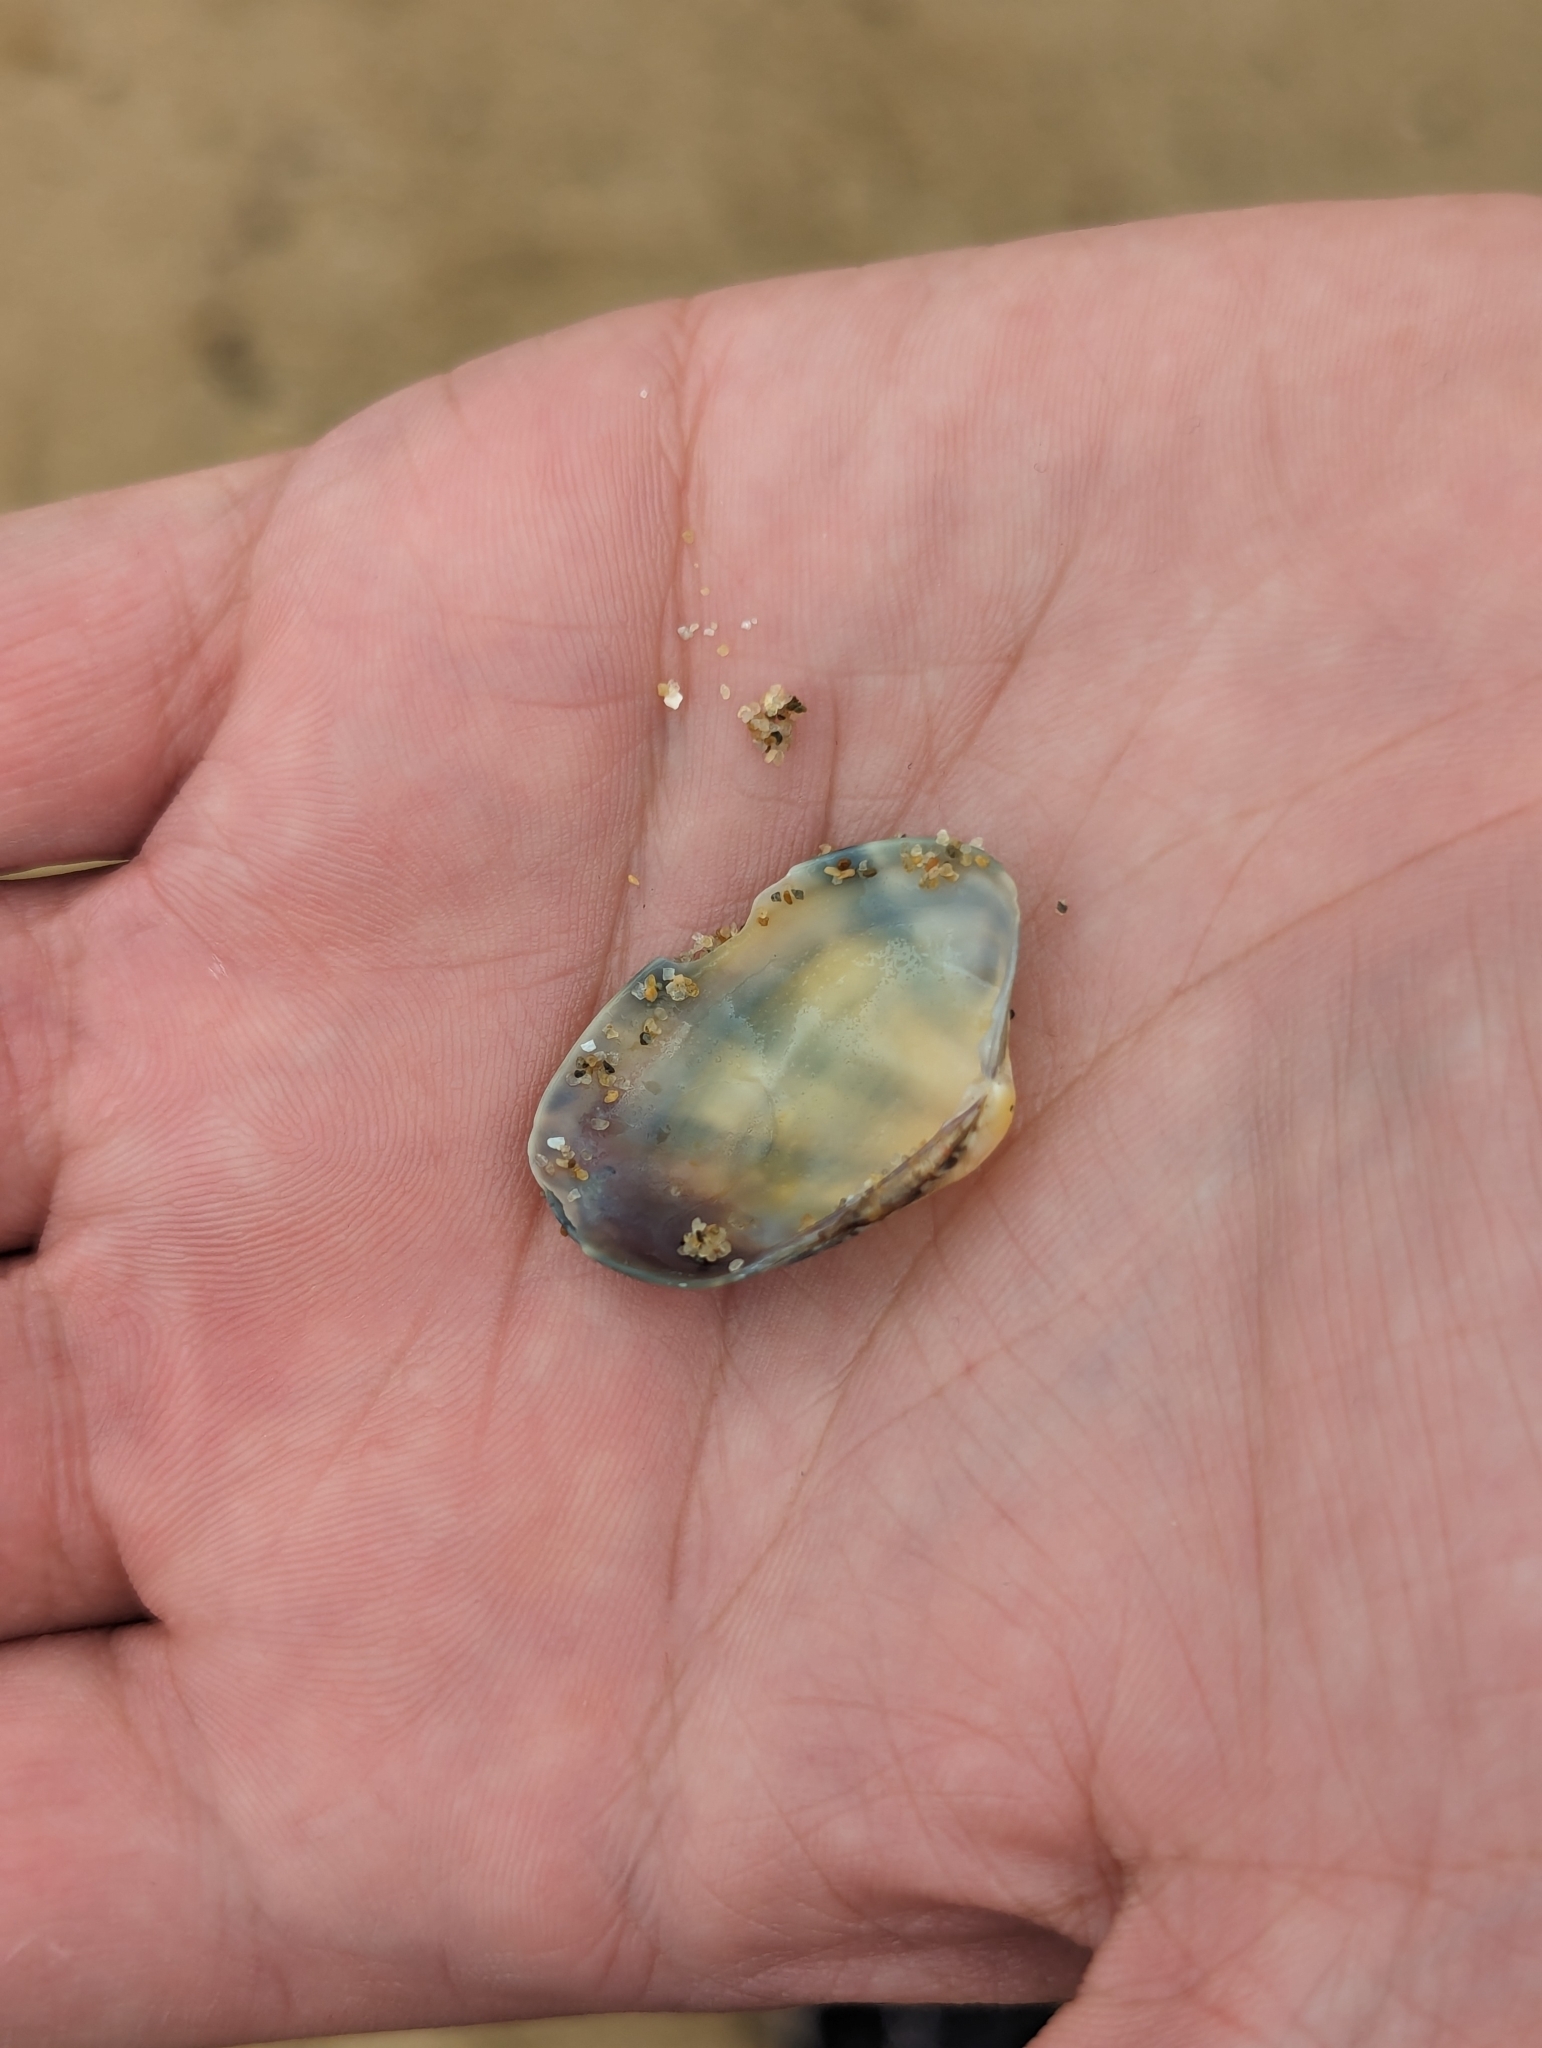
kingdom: Animalia
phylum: Mollusca
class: Bivalvia
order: Venerida
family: Veneridae
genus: Ruditapes
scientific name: Ruditapes philippinarum
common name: Manila clam
